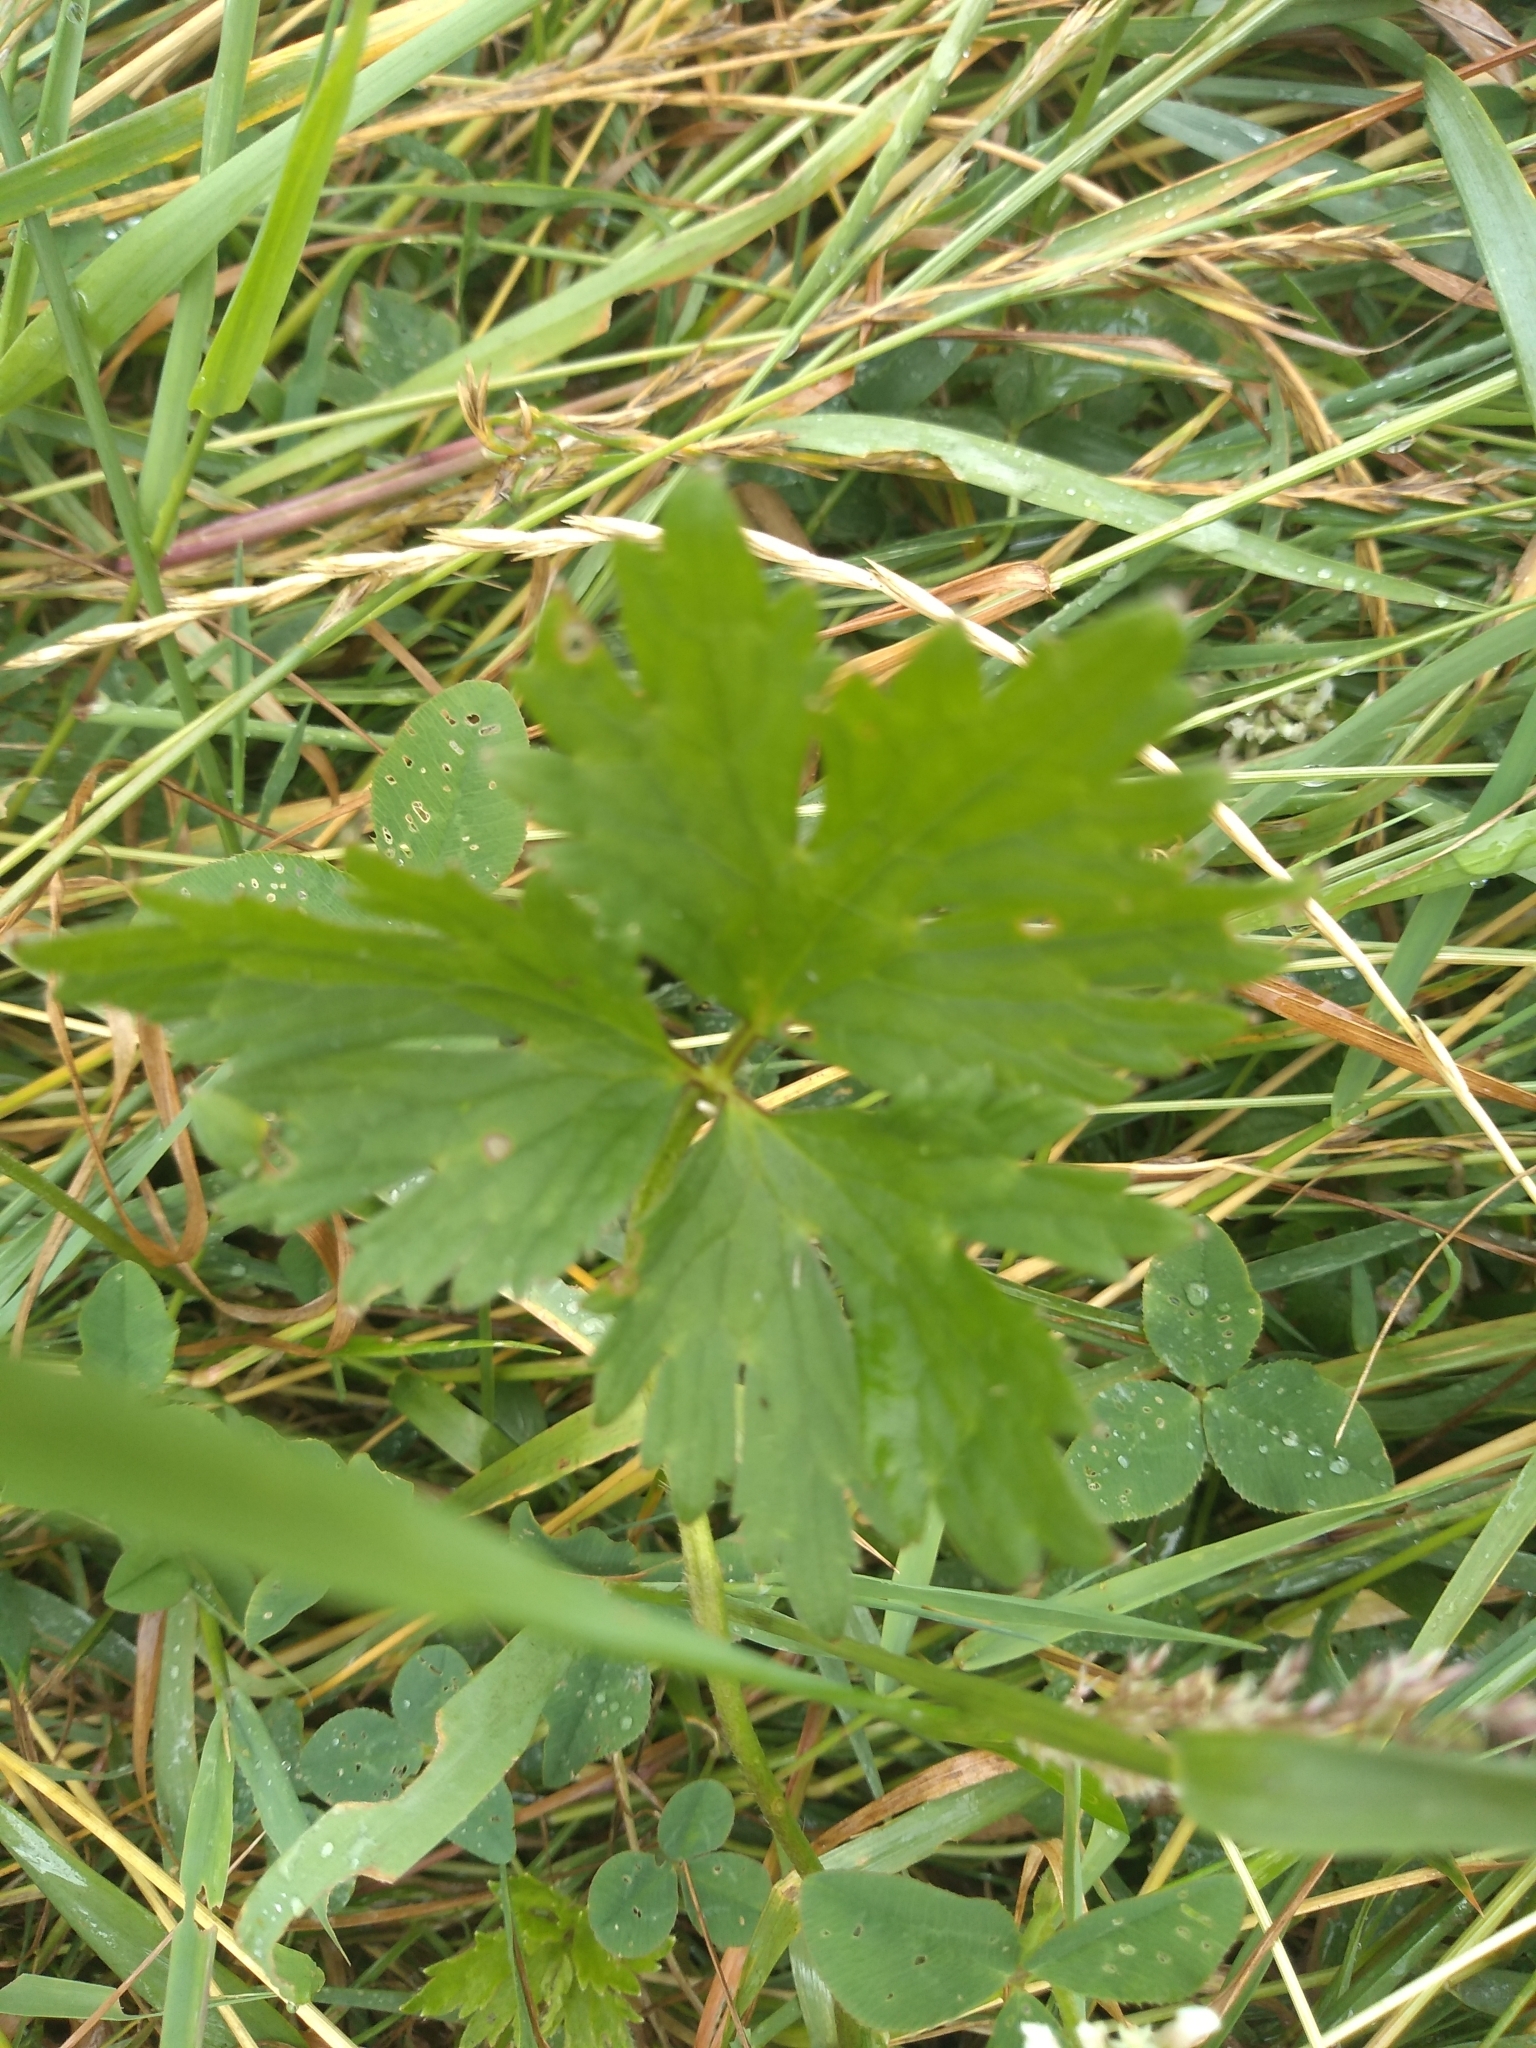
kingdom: Plantae
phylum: Tracheophyta
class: Magnoliopsida
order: Ranunculales
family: Ranunculaceae
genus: Ranunculus
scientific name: Ranunculus repens
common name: Creeping buttercup
